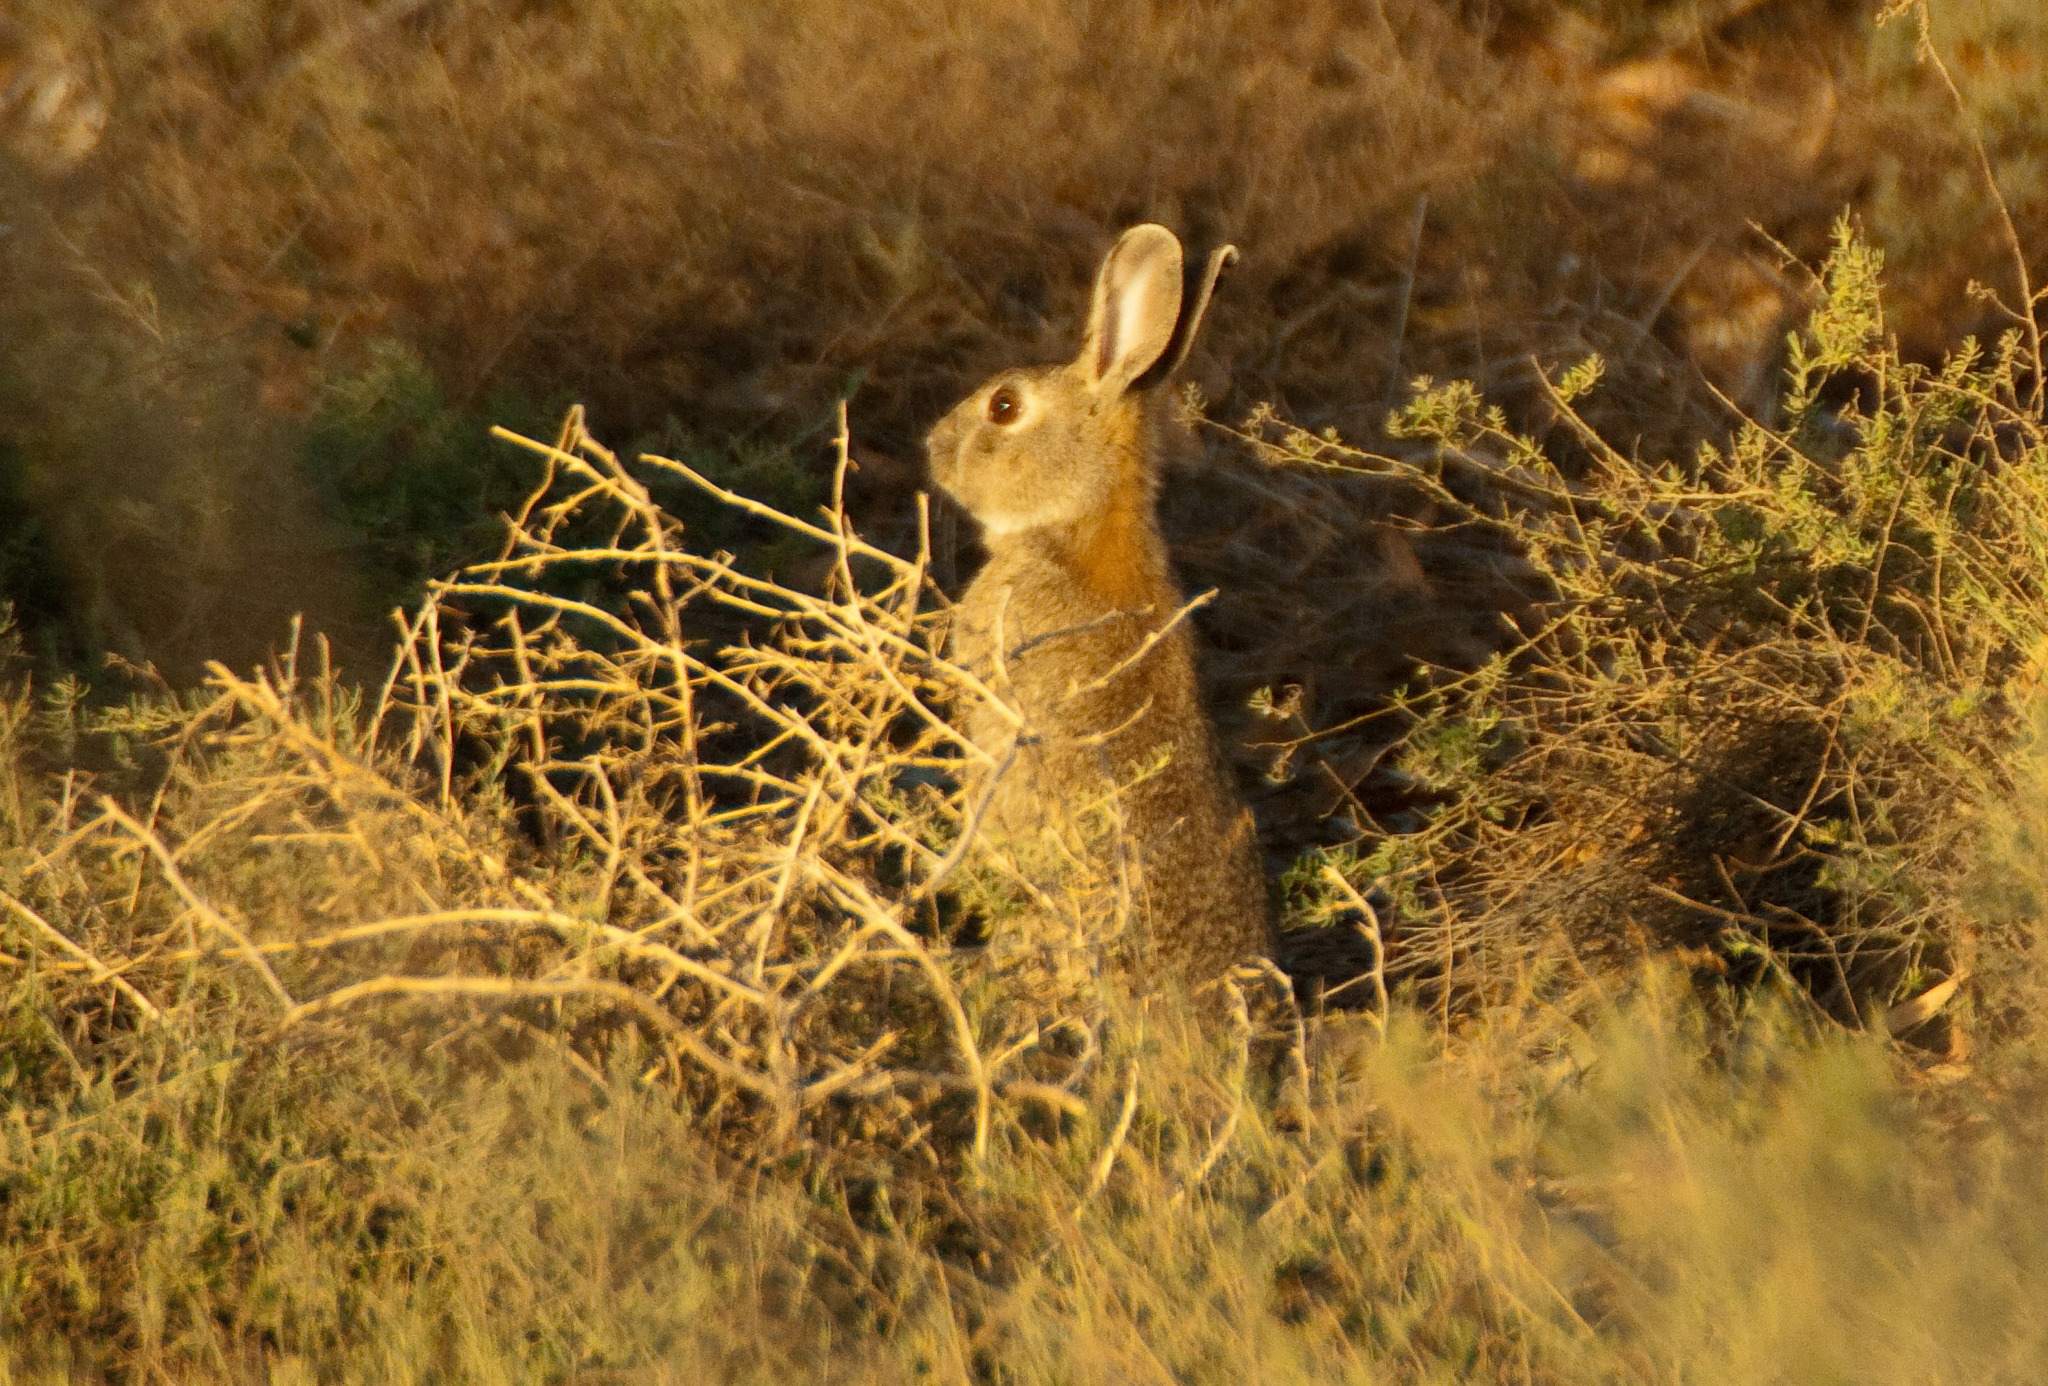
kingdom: Animalia
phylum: Chordata
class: Mammalia
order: Lagomorpha
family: Leporidae
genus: Oryctolagus
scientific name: Oryctolagus cuniculus
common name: European rabbit
